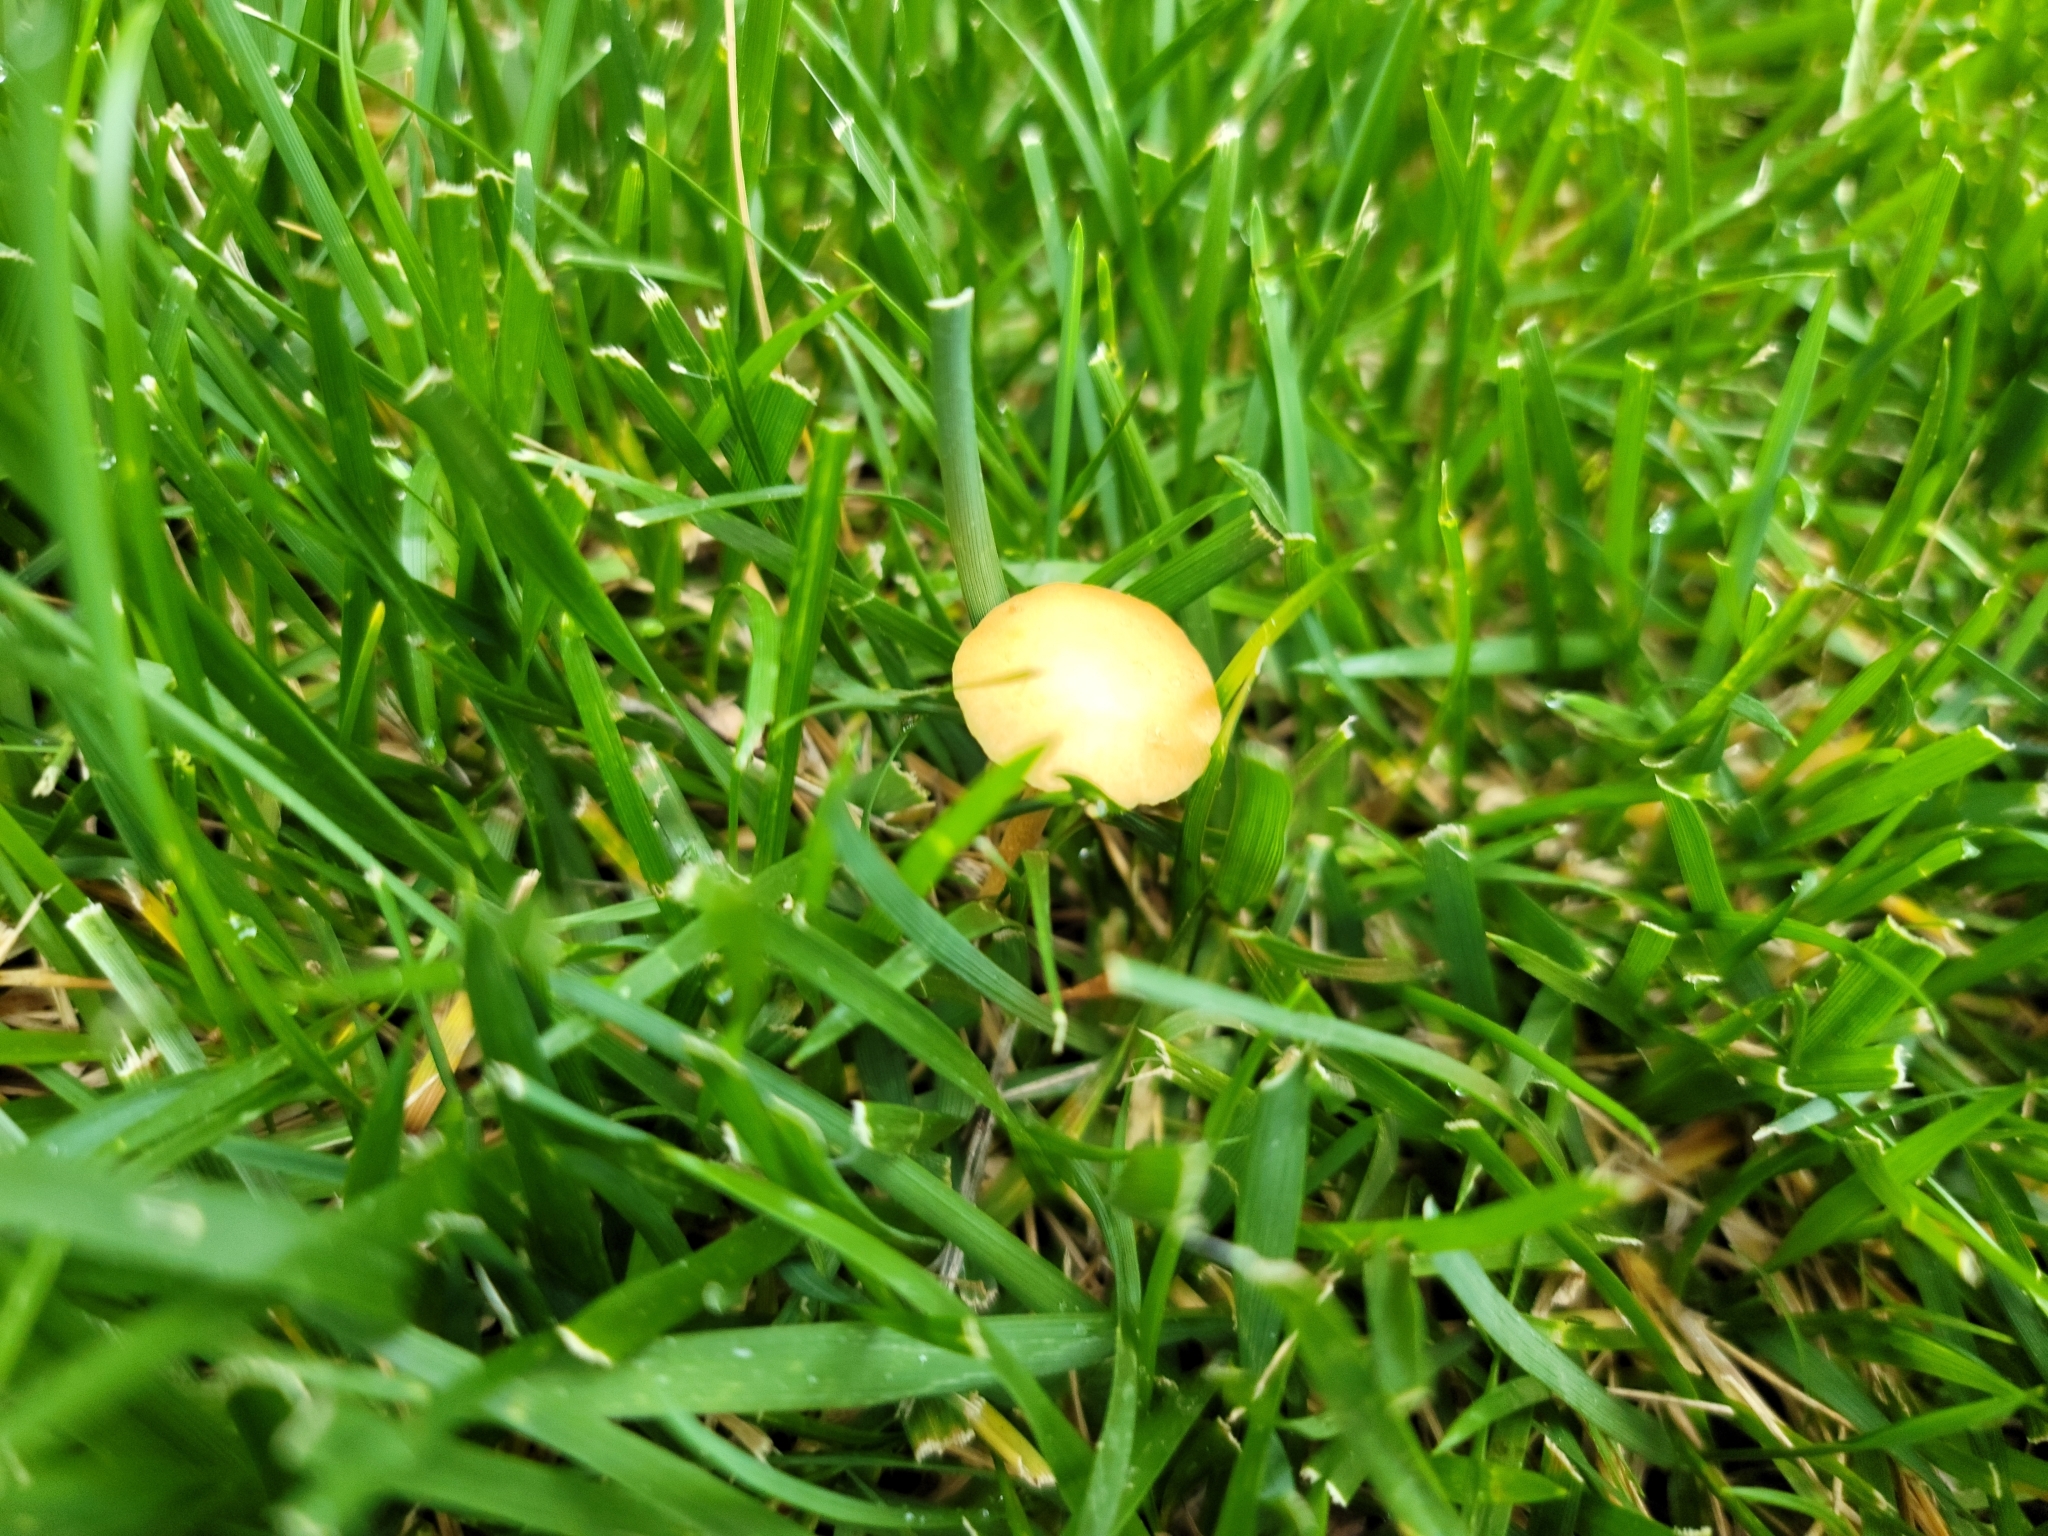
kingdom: Fungi
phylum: Basidiomycota
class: Agaricomycetes
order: Agaricales
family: Strophariaceae
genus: Agrocybe
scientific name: Agrocybe pediades
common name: Common fieldcap
